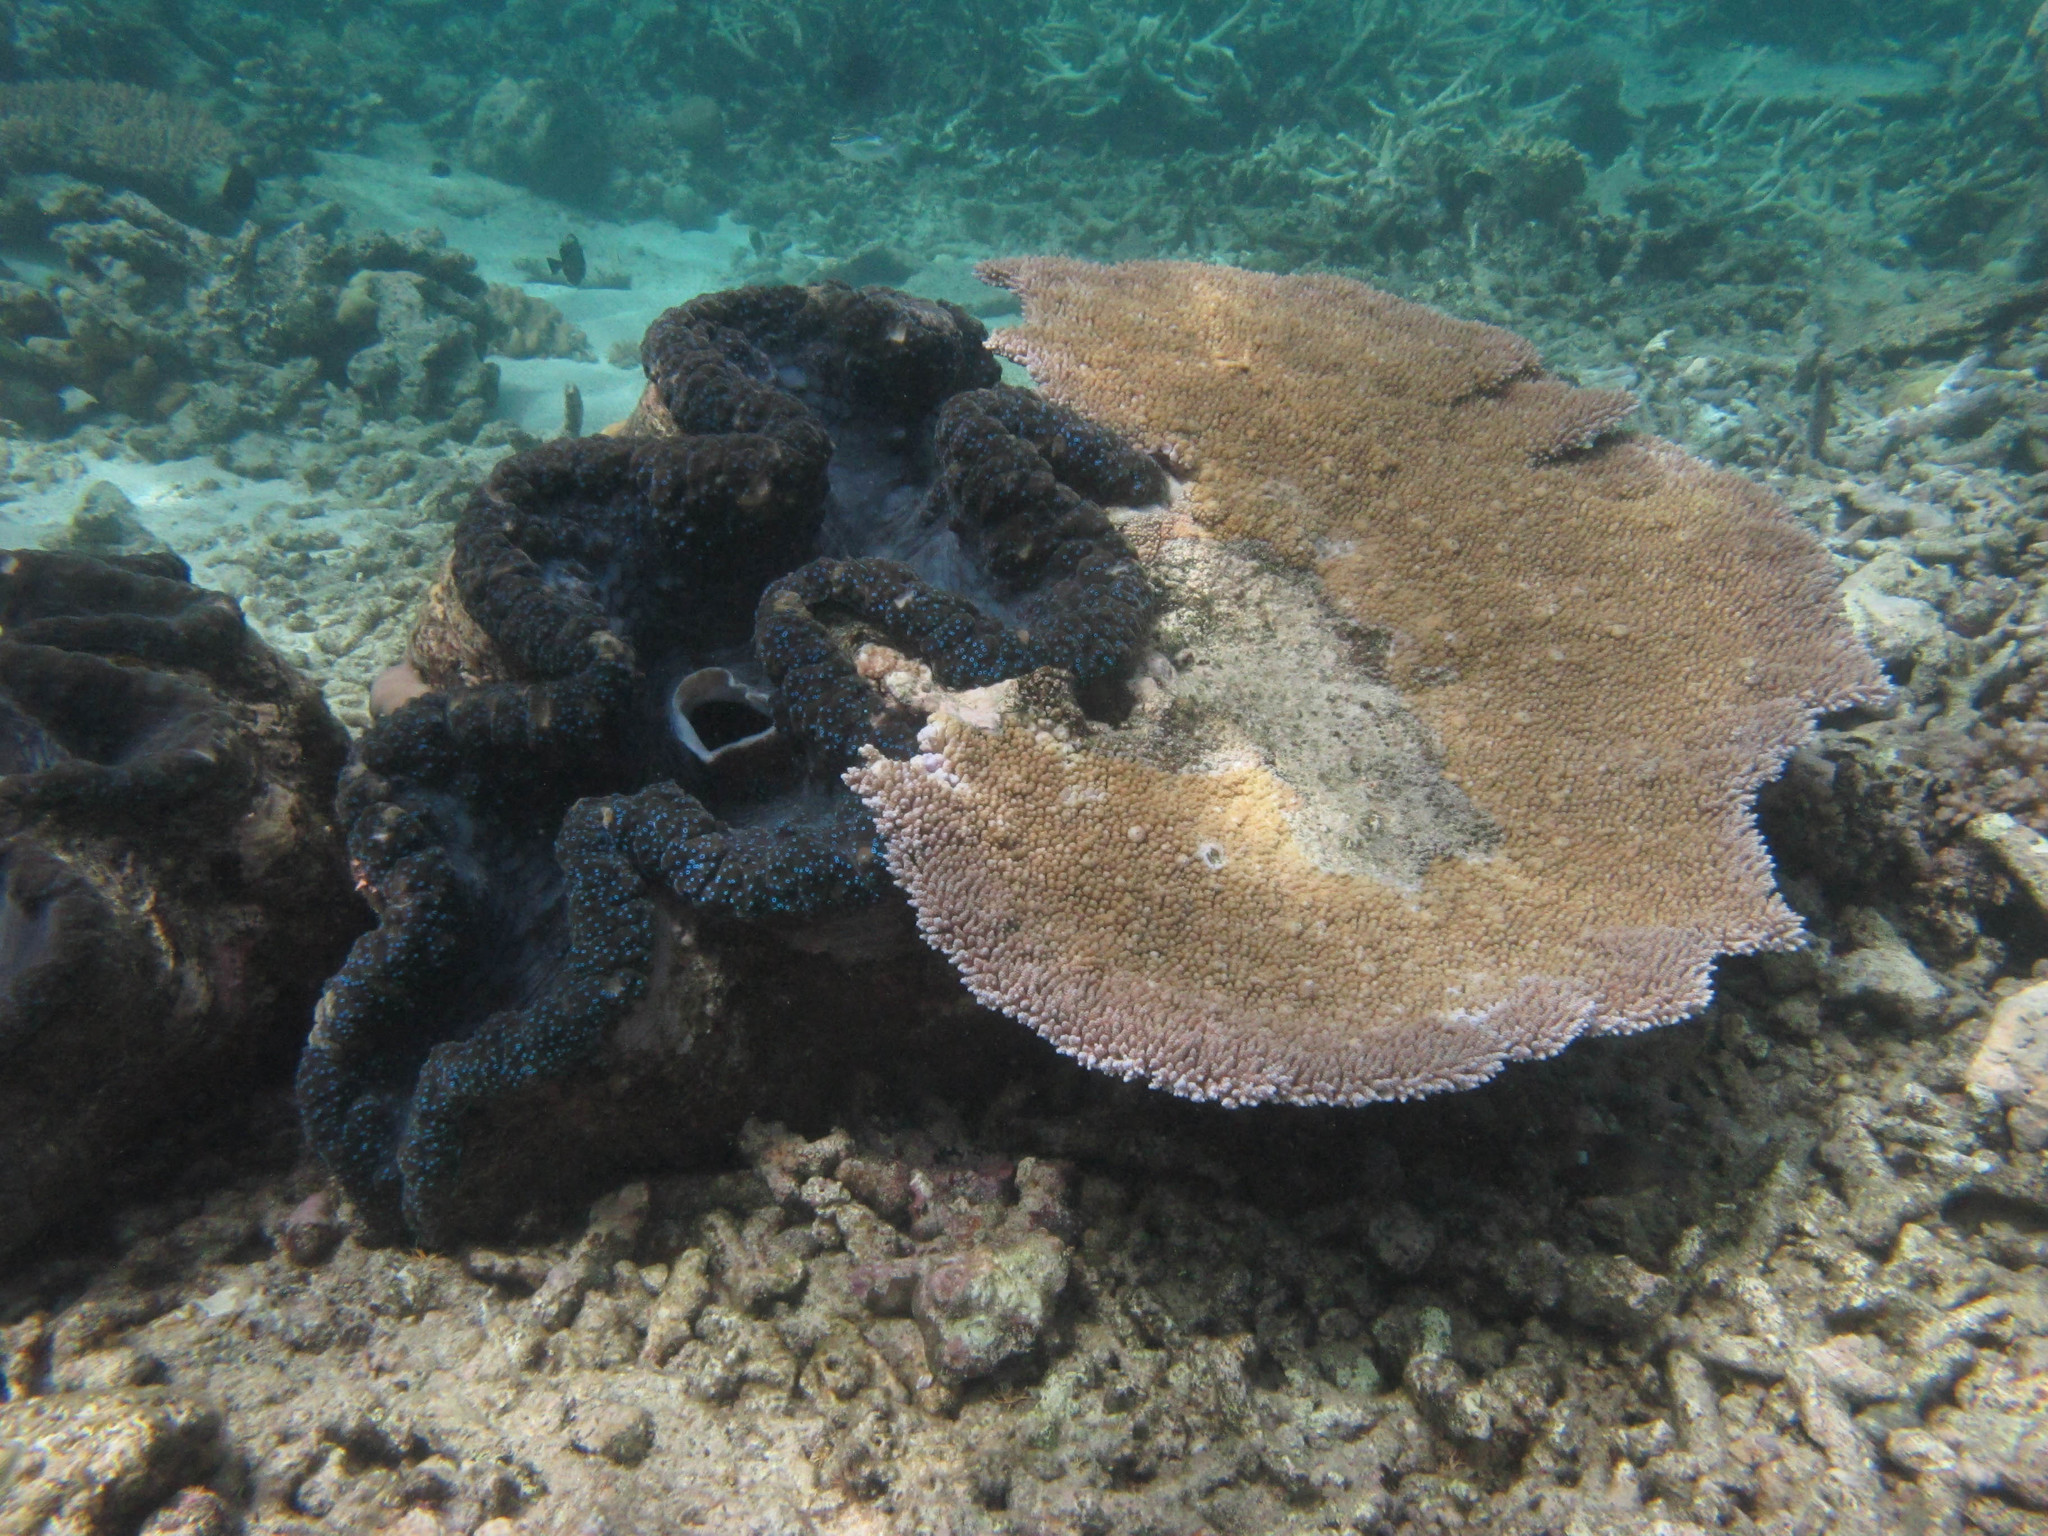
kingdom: Animalia
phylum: Mollusca
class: Bivalvia
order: Cardiida
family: Cardiidae
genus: Tridacna
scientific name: Tridacna gigas
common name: Giant clam
